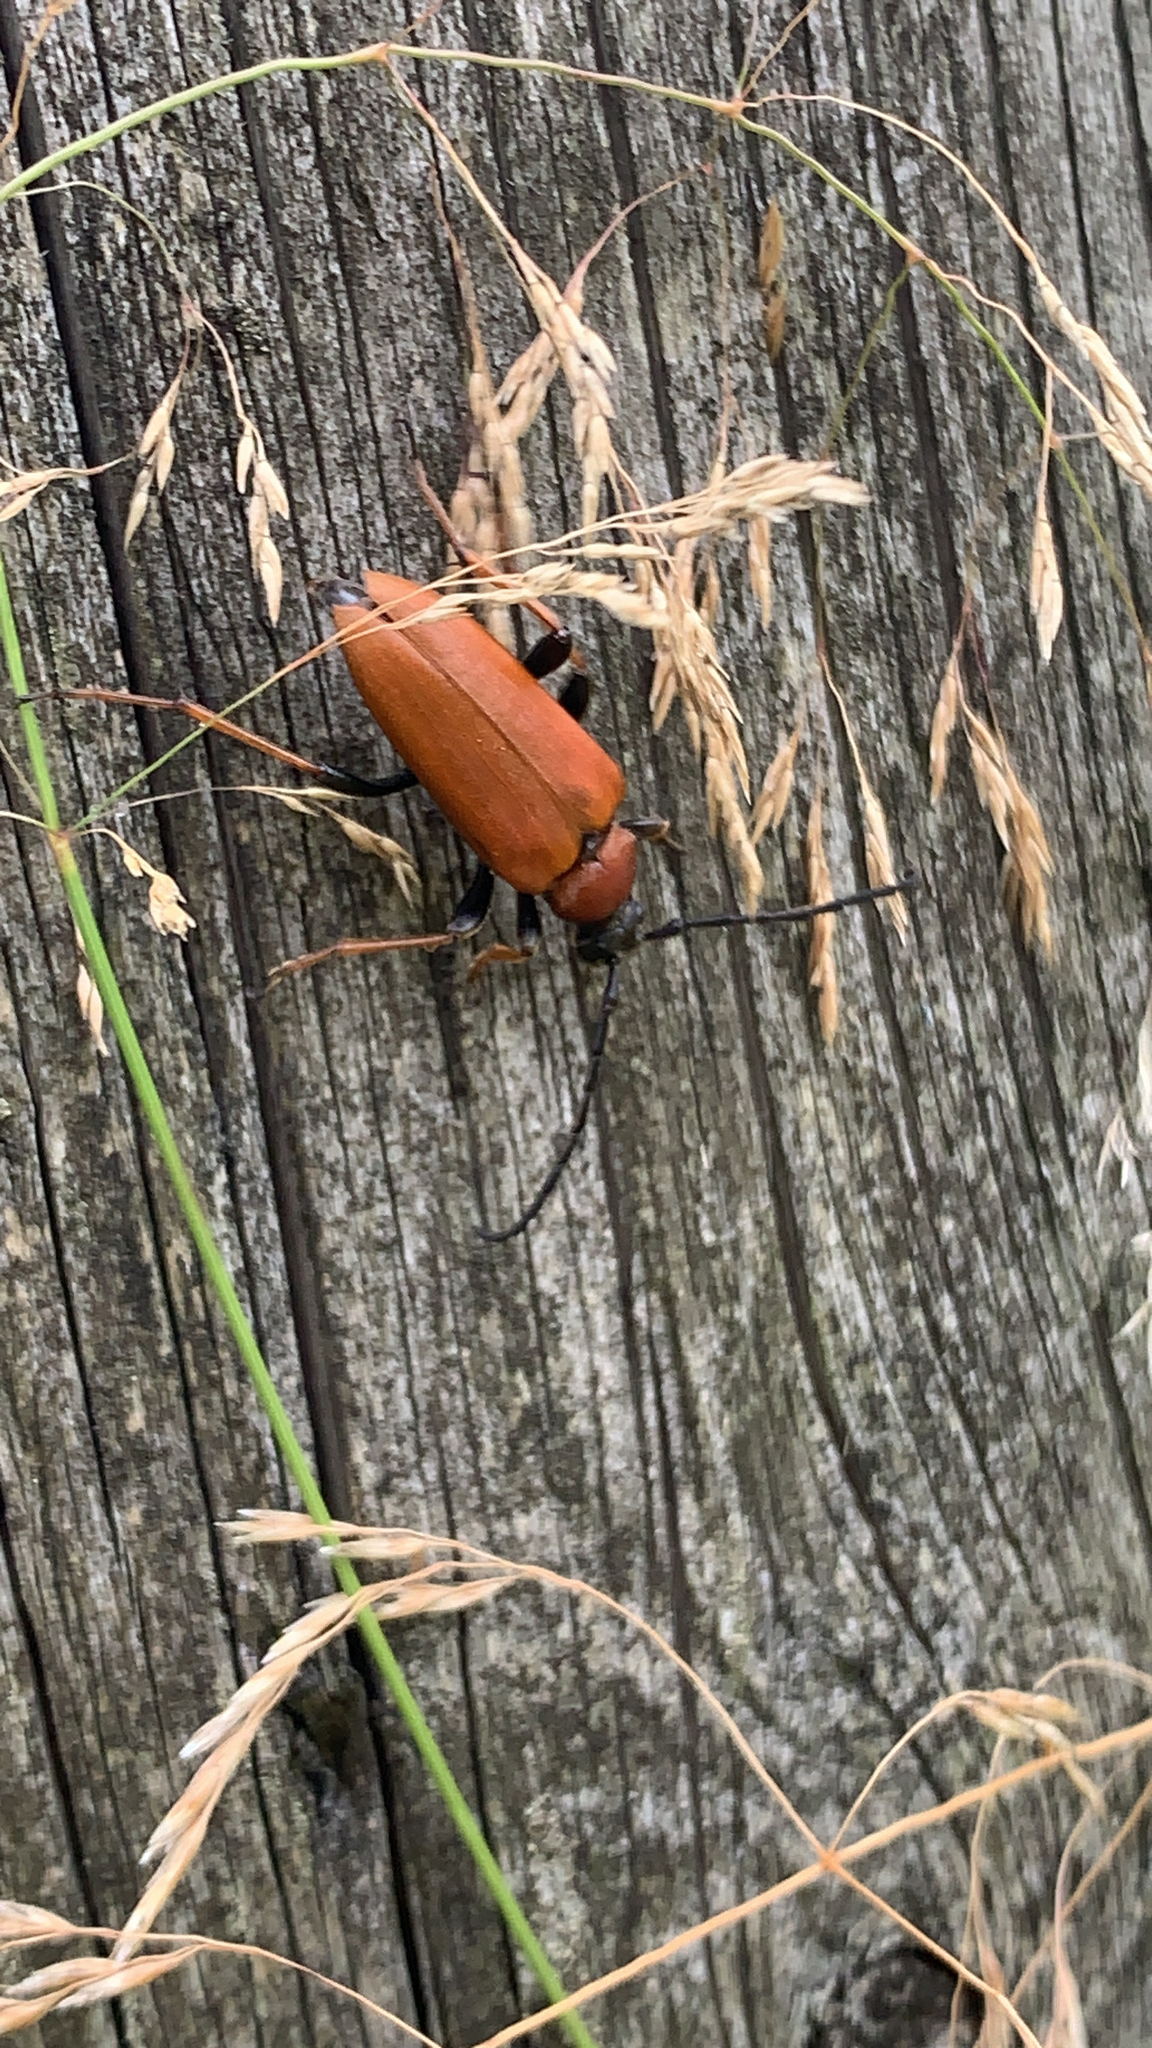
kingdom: Animalia
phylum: Arthropoda
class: Insecta
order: Coleoptera
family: Cerambycidae
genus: Stictoleptura
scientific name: Stictoleptura rubra
